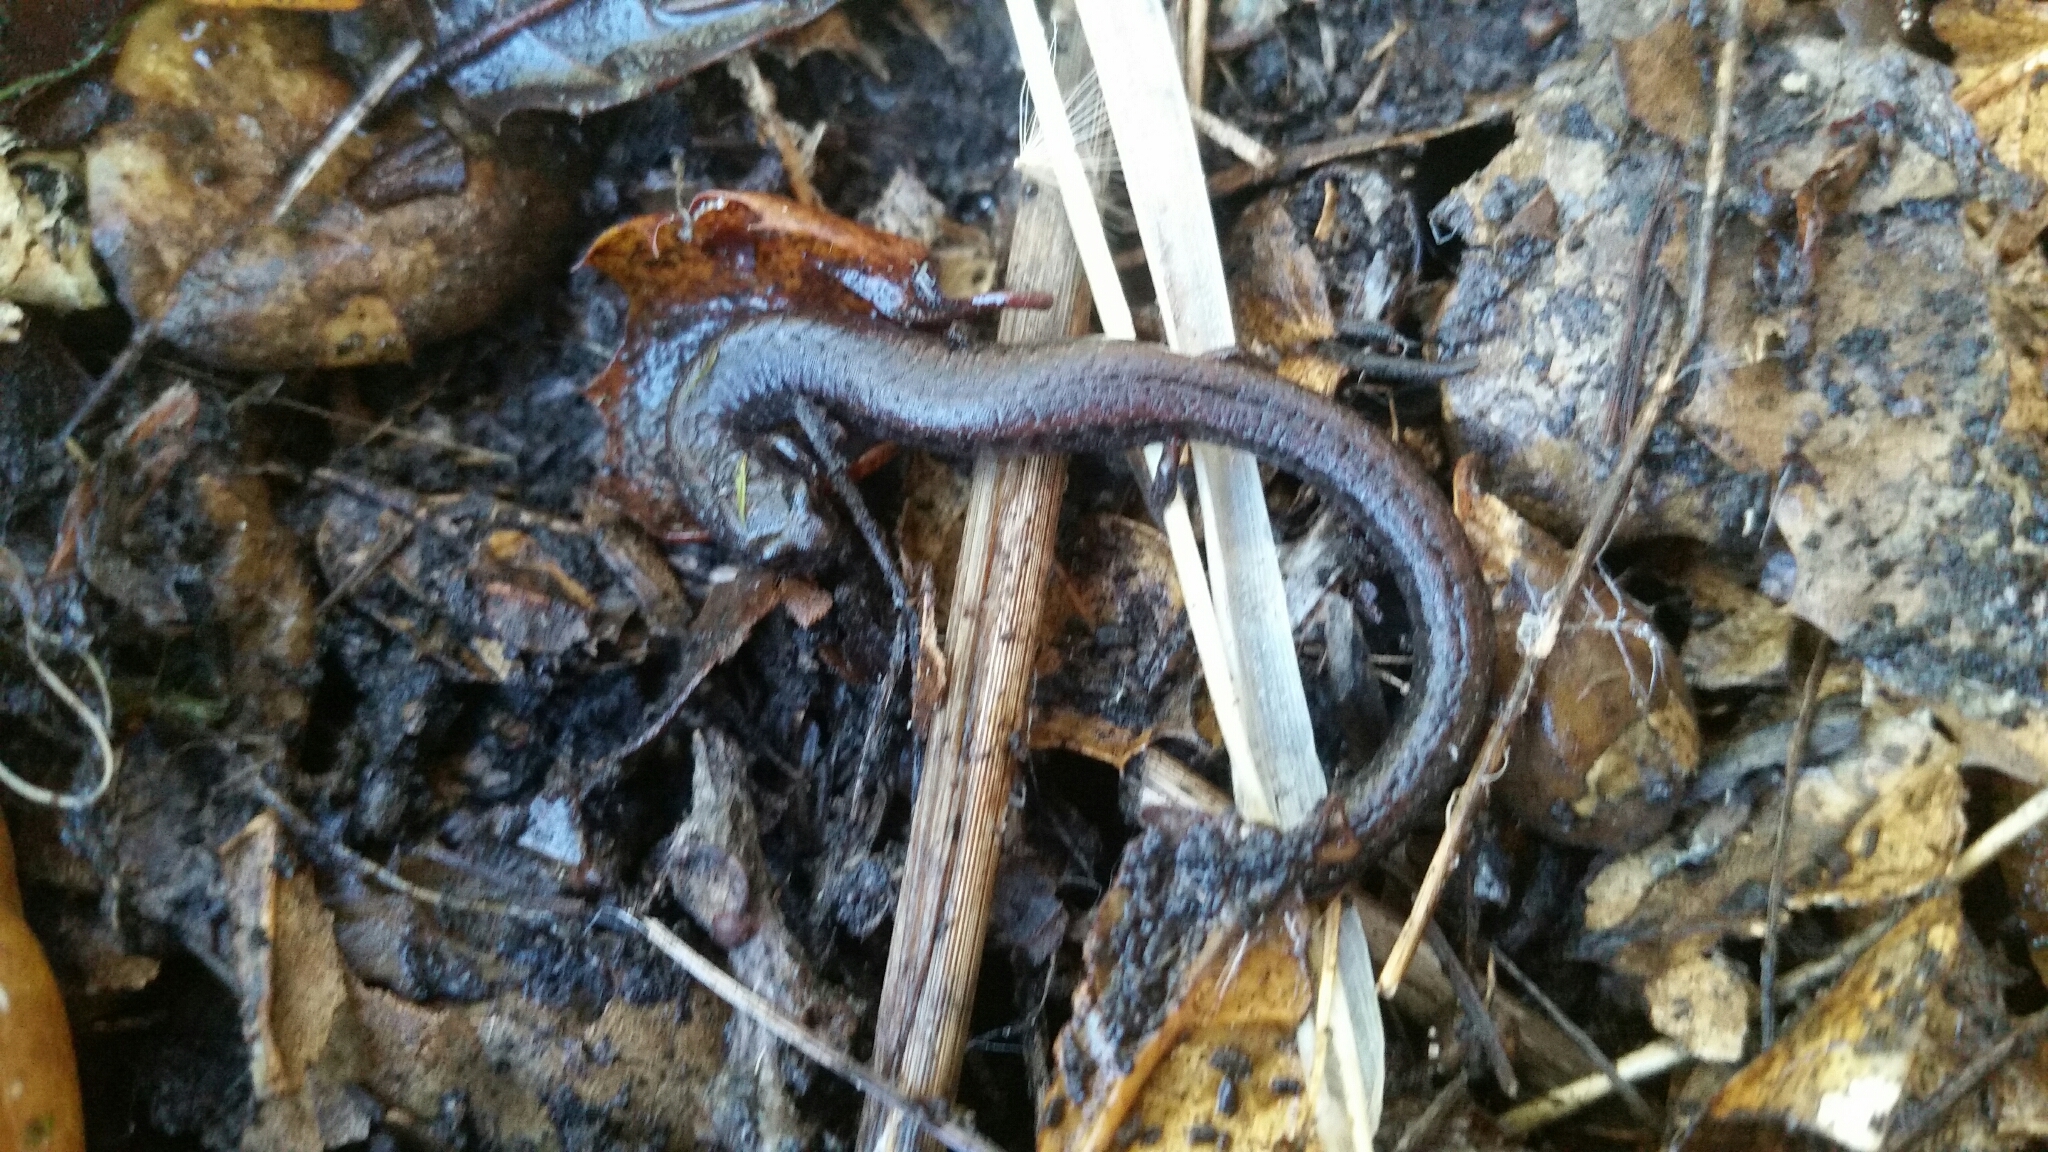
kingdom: Animalia
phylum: Chordata
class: Amphibia
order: Caudata
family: Plethodontidae
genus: Batrachoseps
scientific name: Batrachoseps attenuatus
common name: California slender salamander
